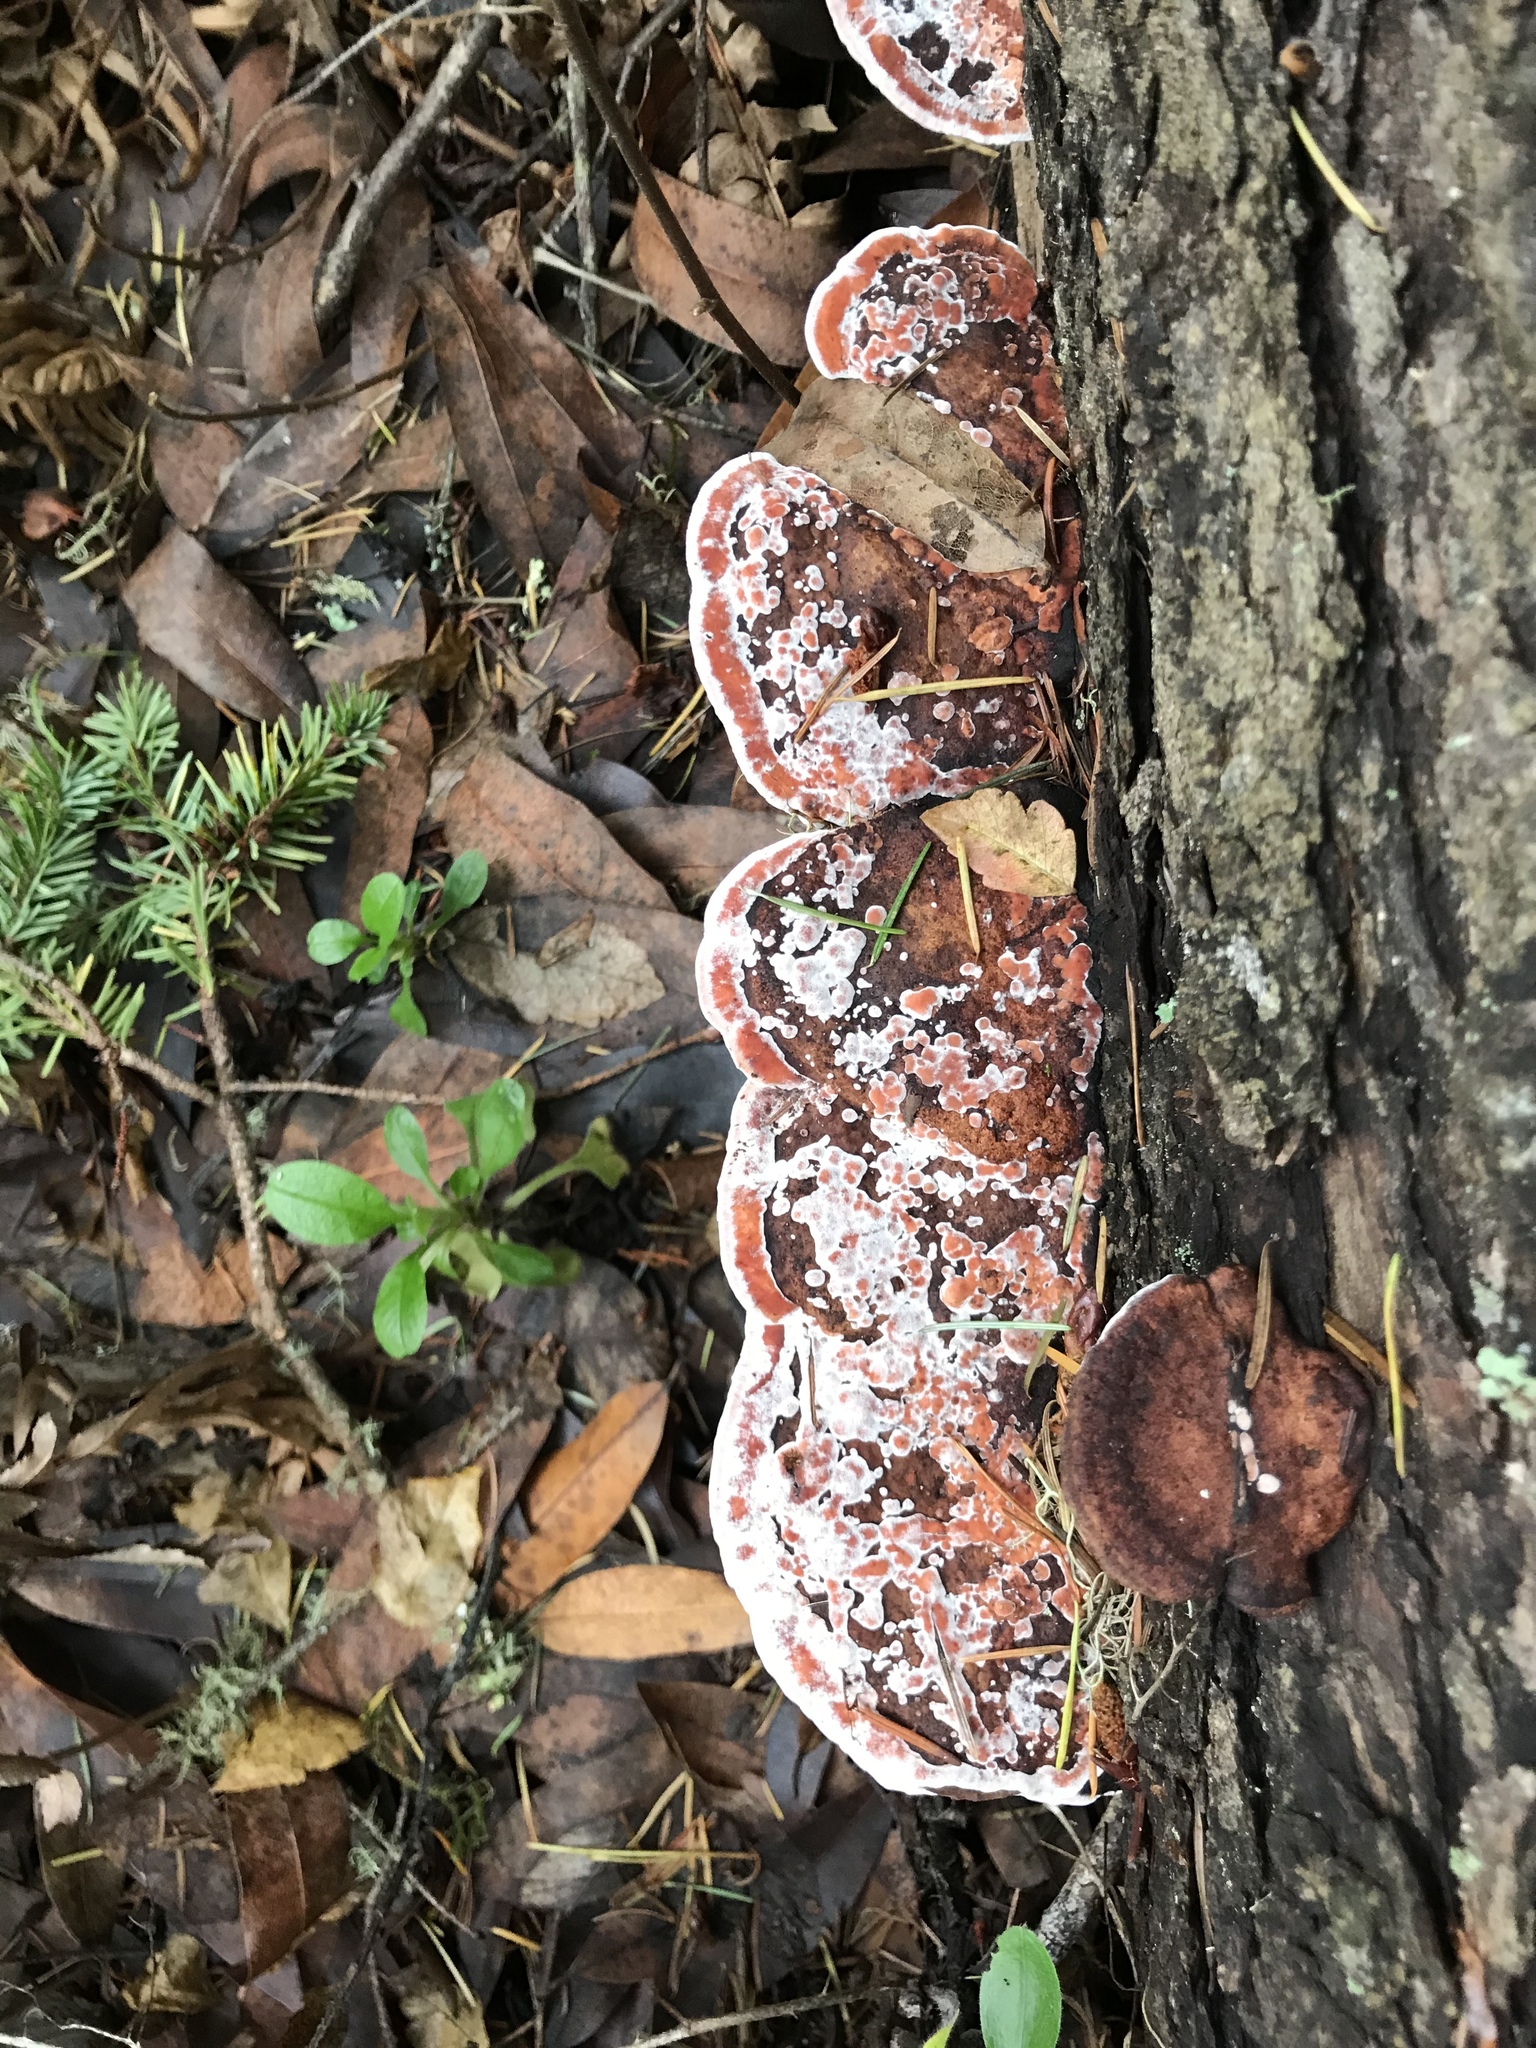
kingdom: Fungi
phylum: Basidiomycota
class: Agaricomycetes
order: Polyporales
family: Fomitopsidaceae
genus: Rhodofomes
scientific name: Rhodofomes cajanderi
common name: Rosy conk
